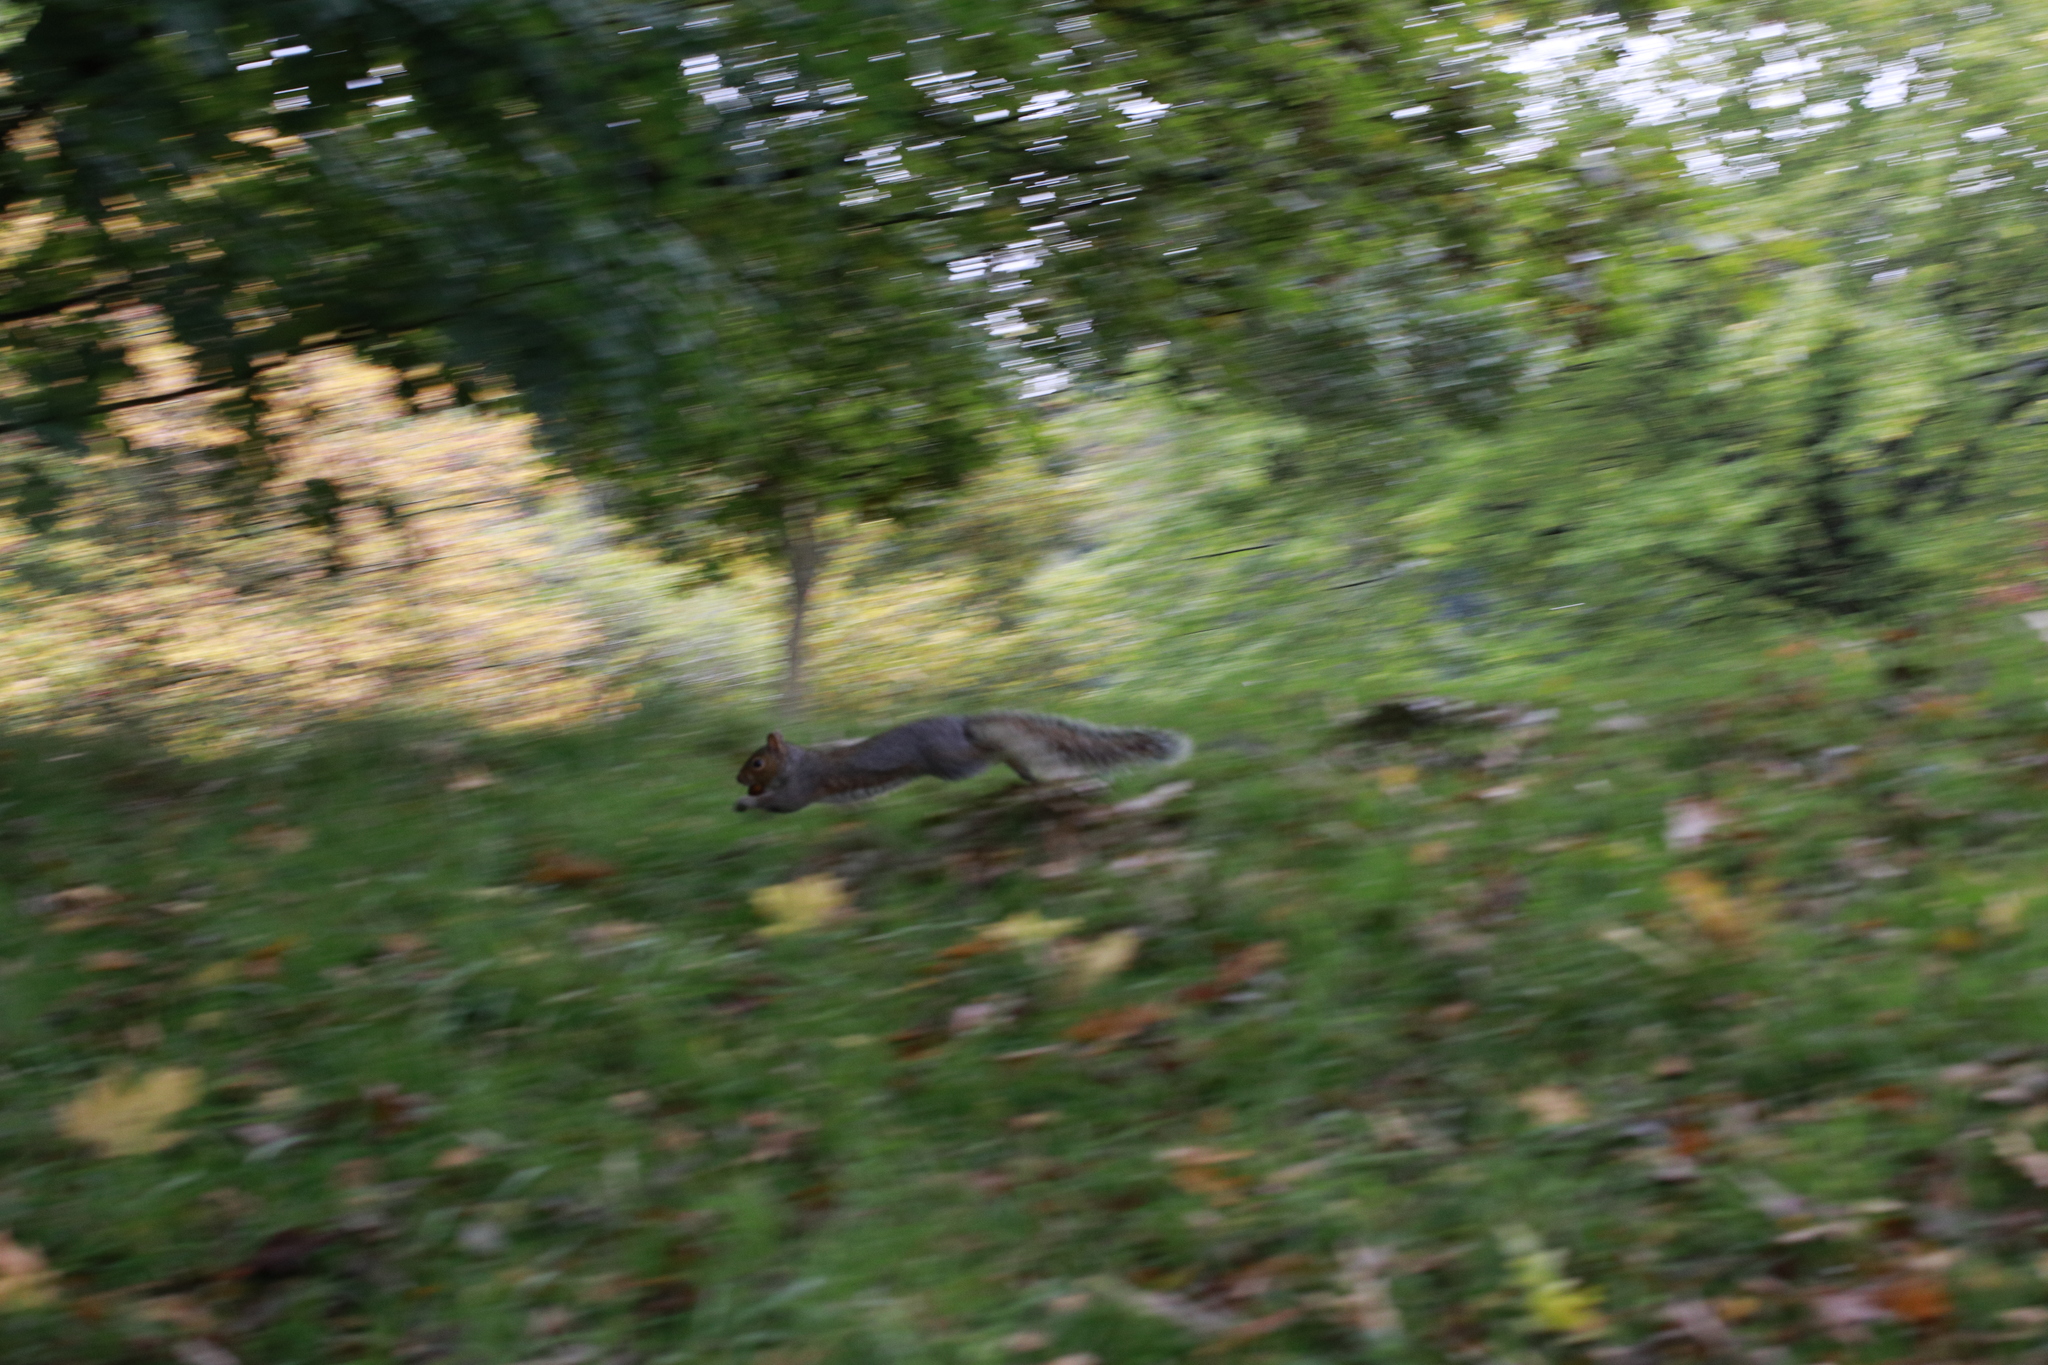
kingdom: Animalia
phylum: Chordata
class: Mammalia
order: Rodentia
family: Sciuridae
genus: Sciurus
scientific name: Sciurus carolinensis
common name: Eastern gray squirrel
